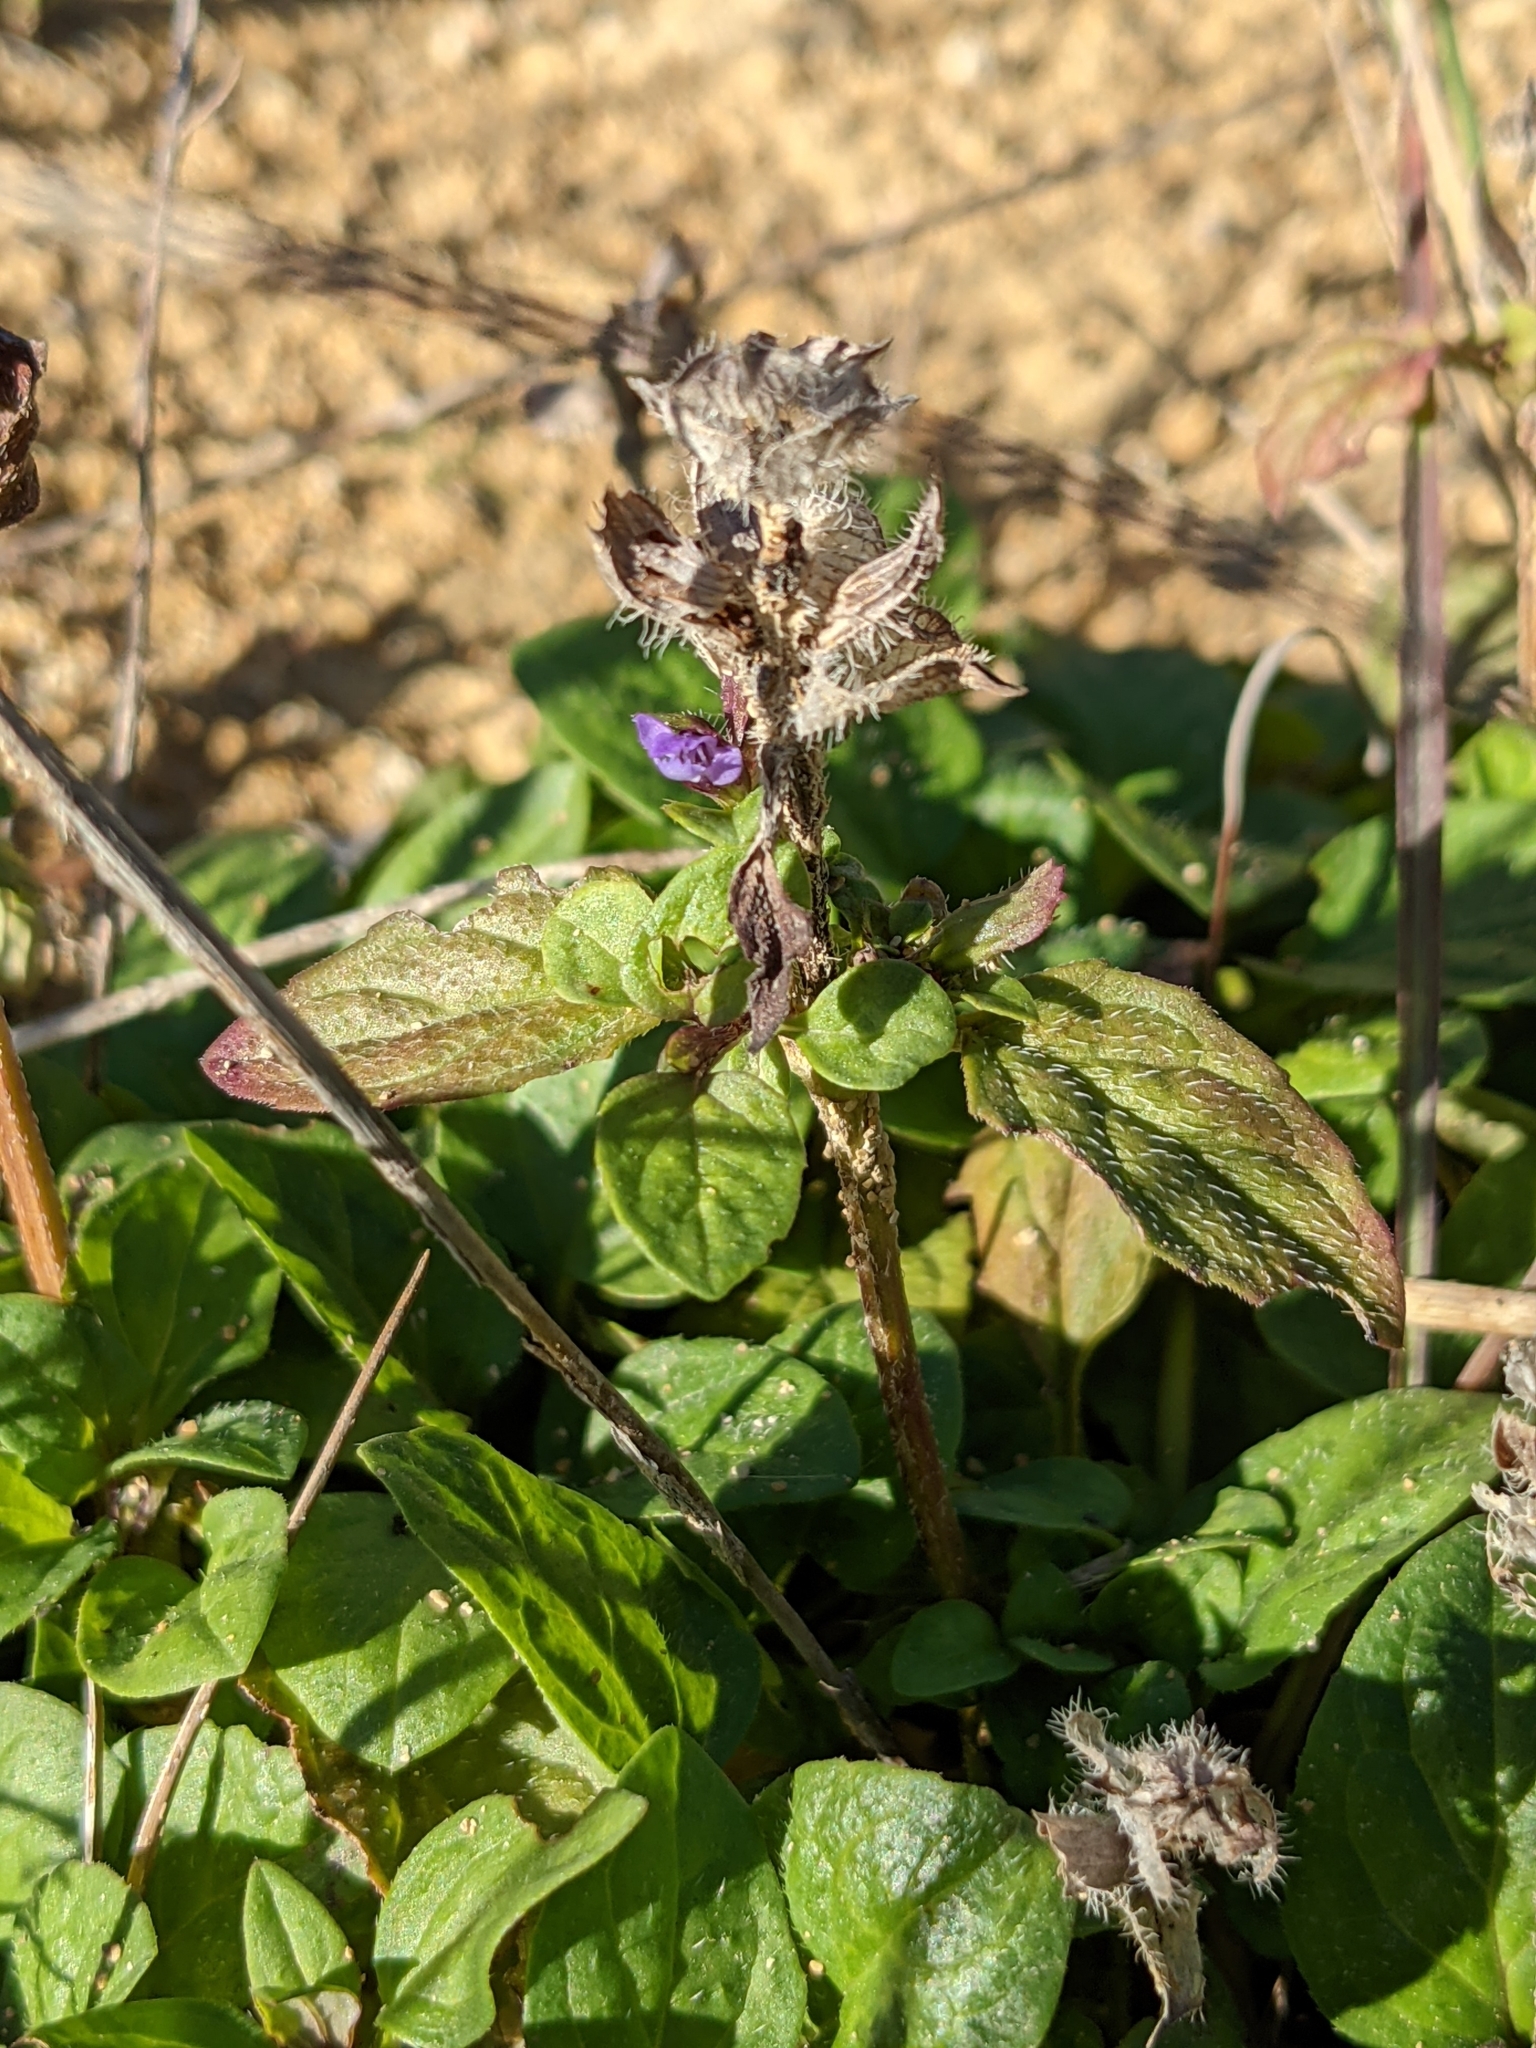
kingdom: Plantae
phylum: Tracheophyta
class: Magnoliopsida
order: Lamiales
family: Lamiaceae
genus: Prunella
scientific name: Prunella vulgaris
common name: Heal-all
